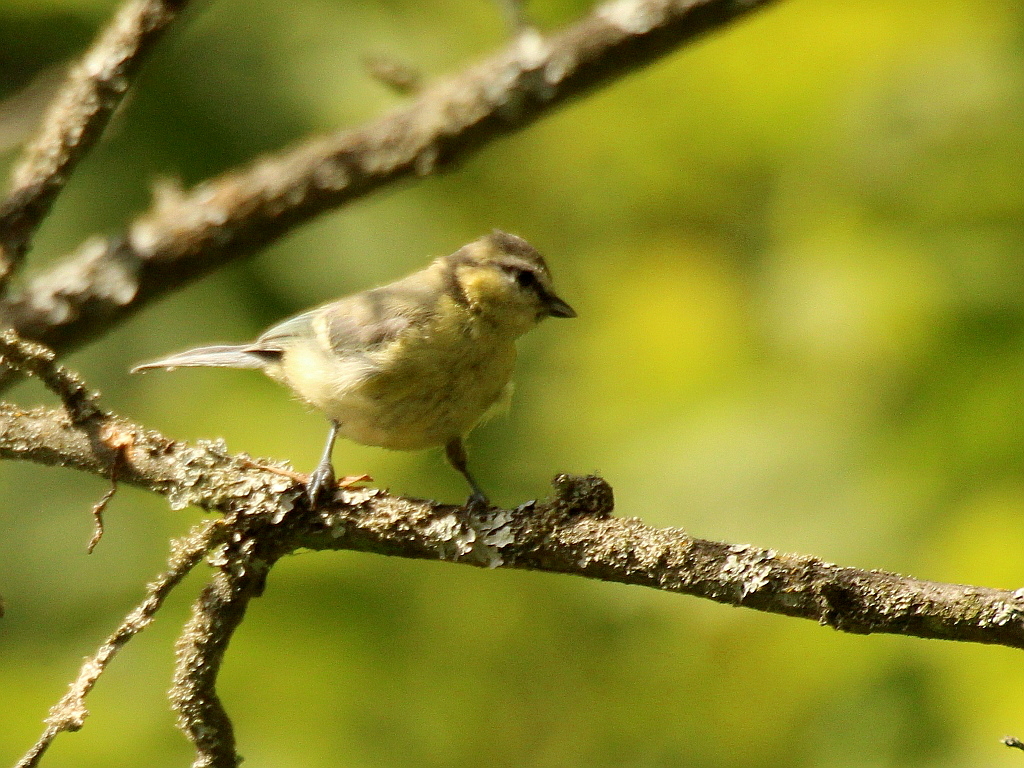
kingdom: Animalia
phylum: Chordata
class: Aves
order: Passeriformes
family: Paridae
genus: Cyanistes
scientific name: Cyanistes caeruleus
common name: Eurasian blue tit
